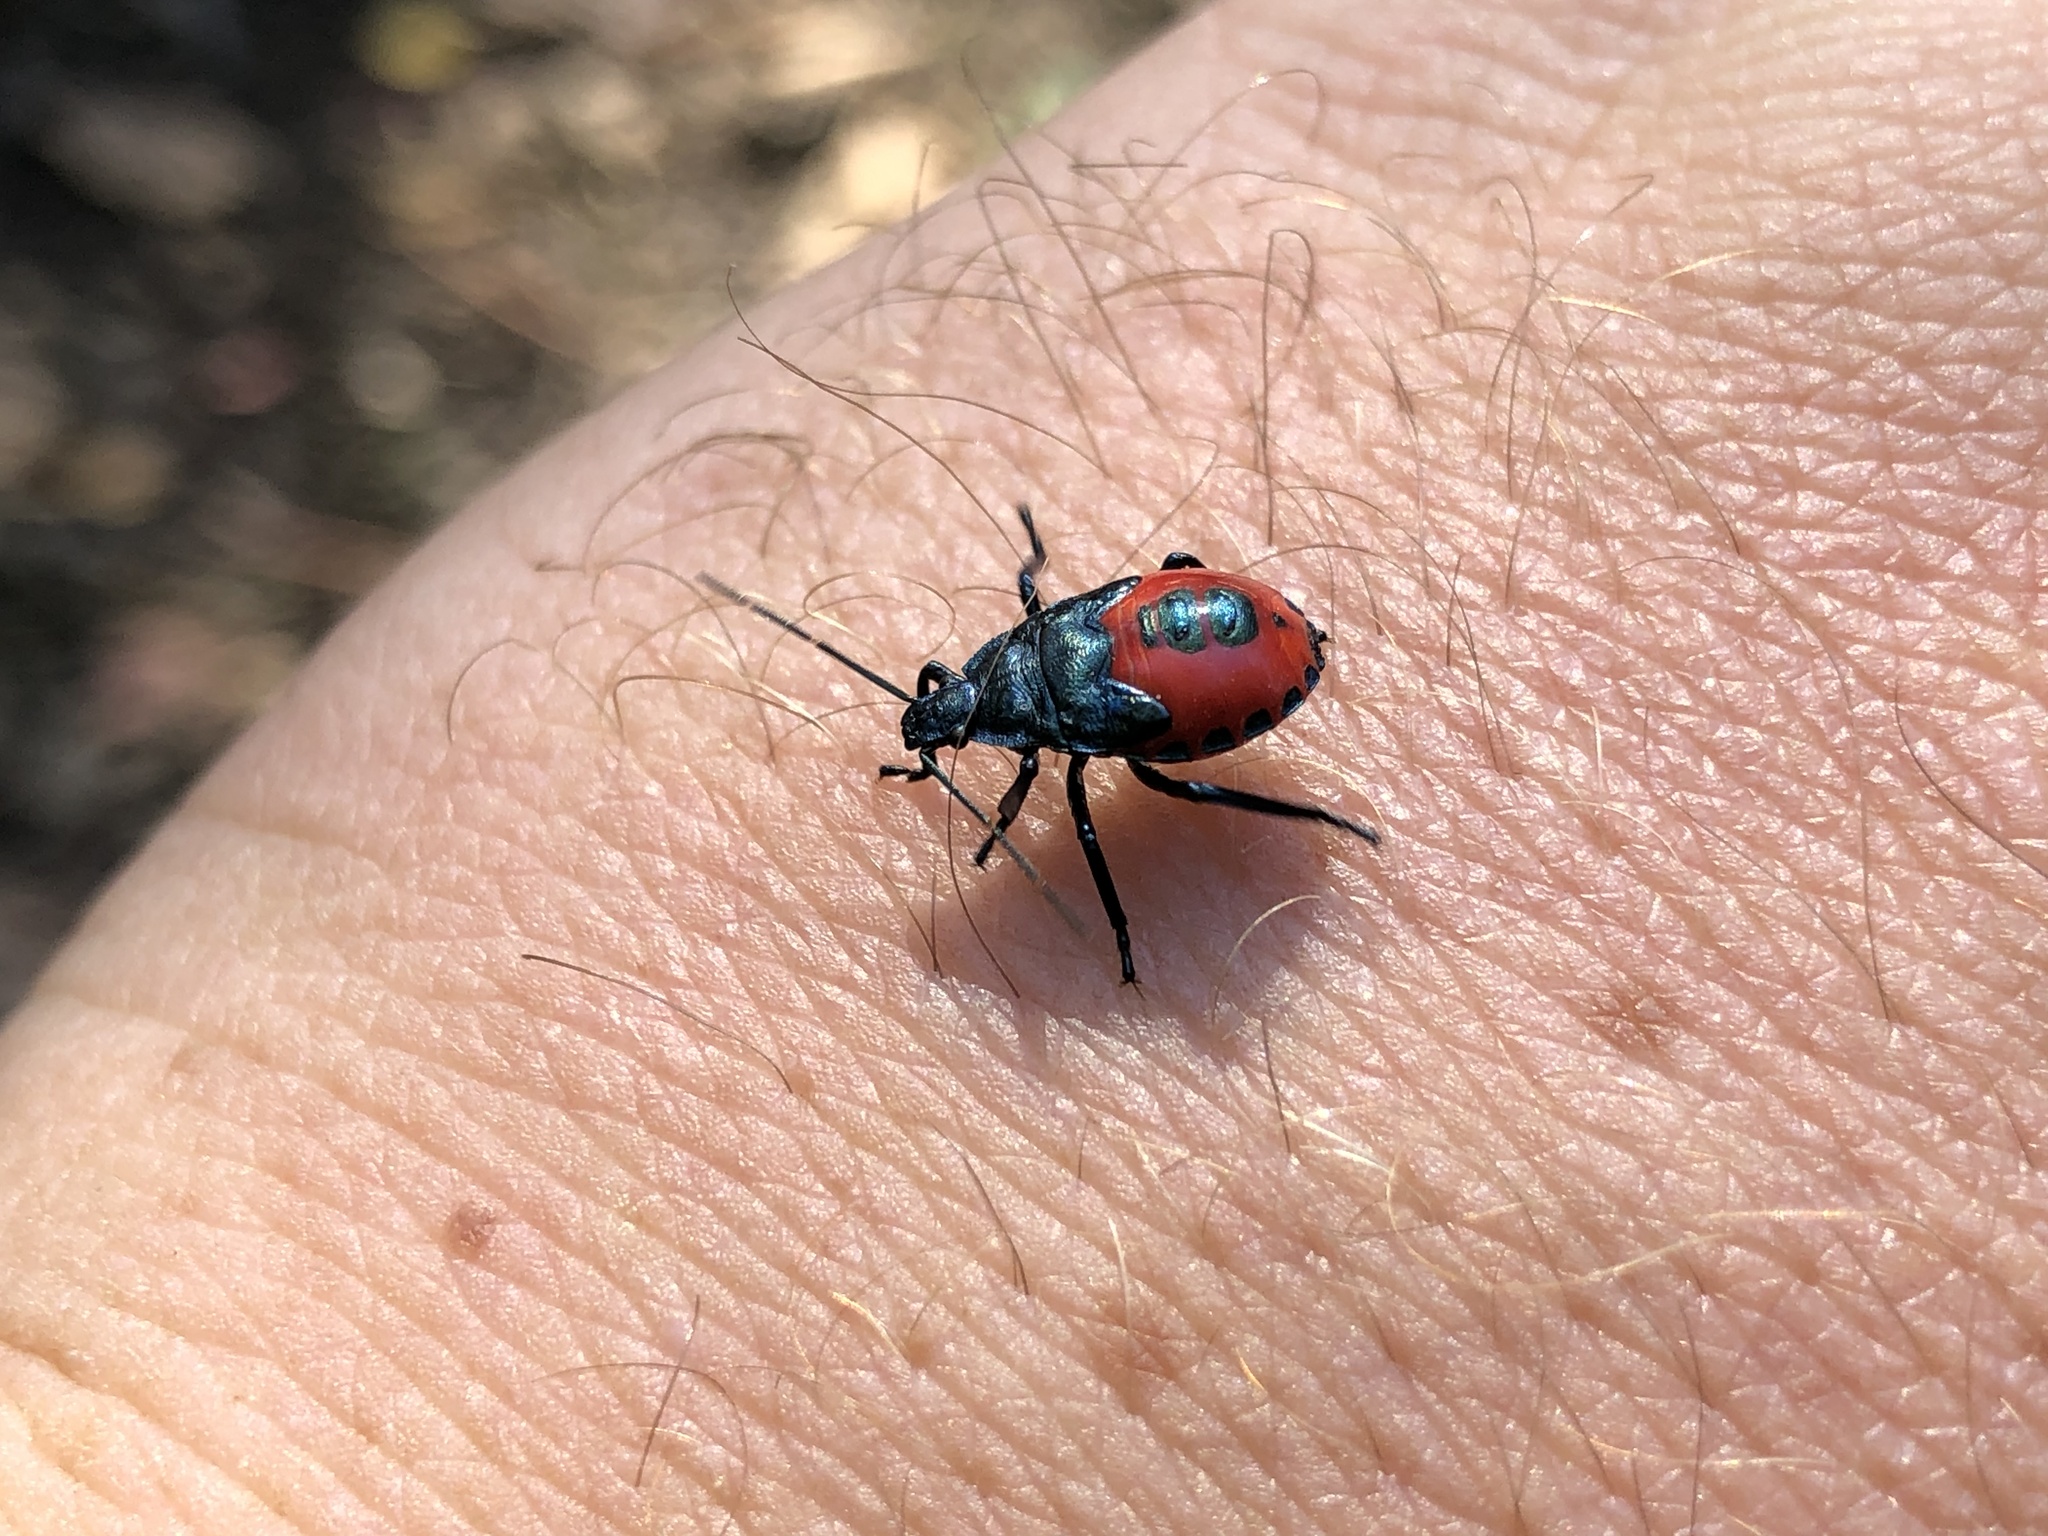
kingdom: Animalia
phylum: Arthropoda
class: Insecta
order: Hemiptera
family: Pentatomidae
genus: Euthyrhynchus
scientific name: Euthyrhynchus floridanus
